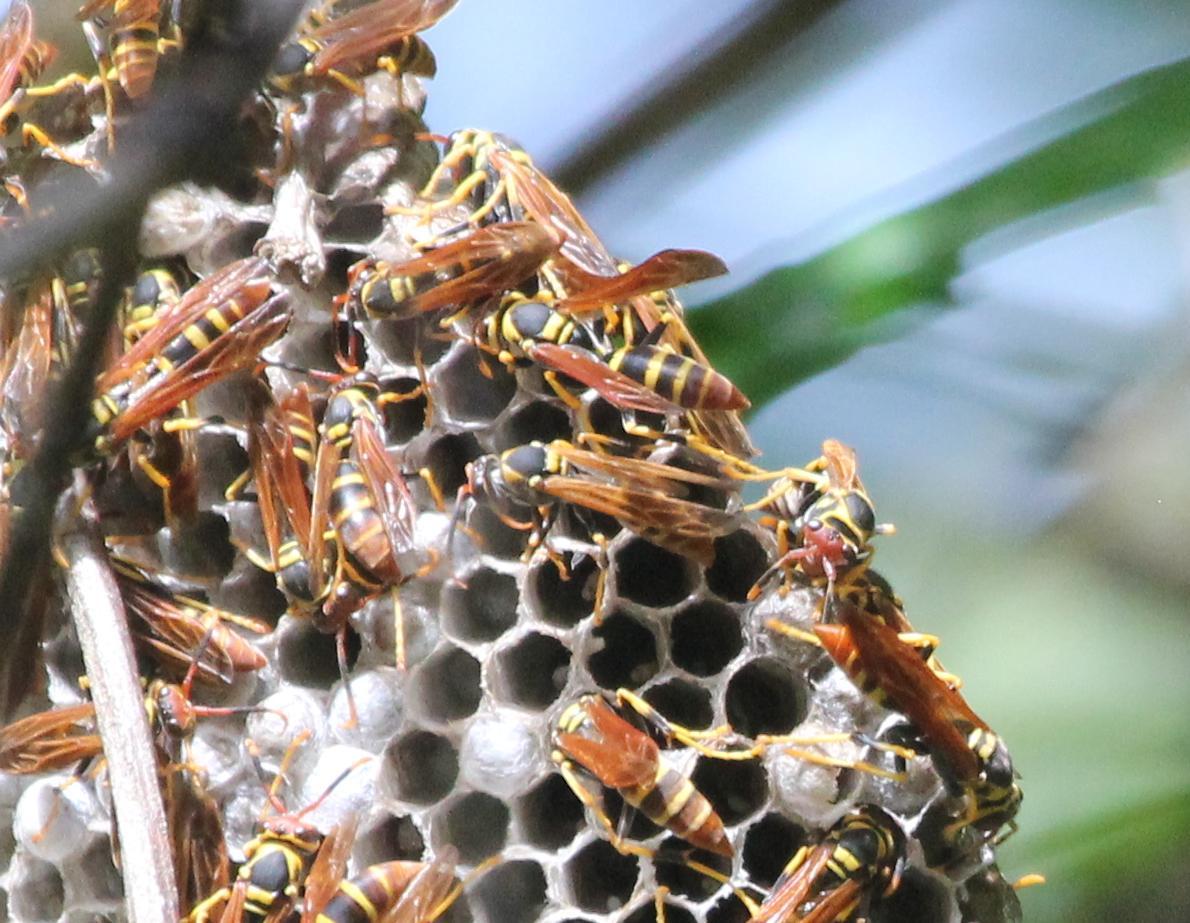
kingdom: Animalia
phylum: Arthropoda
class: Insecta
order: Hymenoptera
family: Eumenidae
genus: Polistes
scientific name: Polistes crinitus
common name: Jack spaniard
